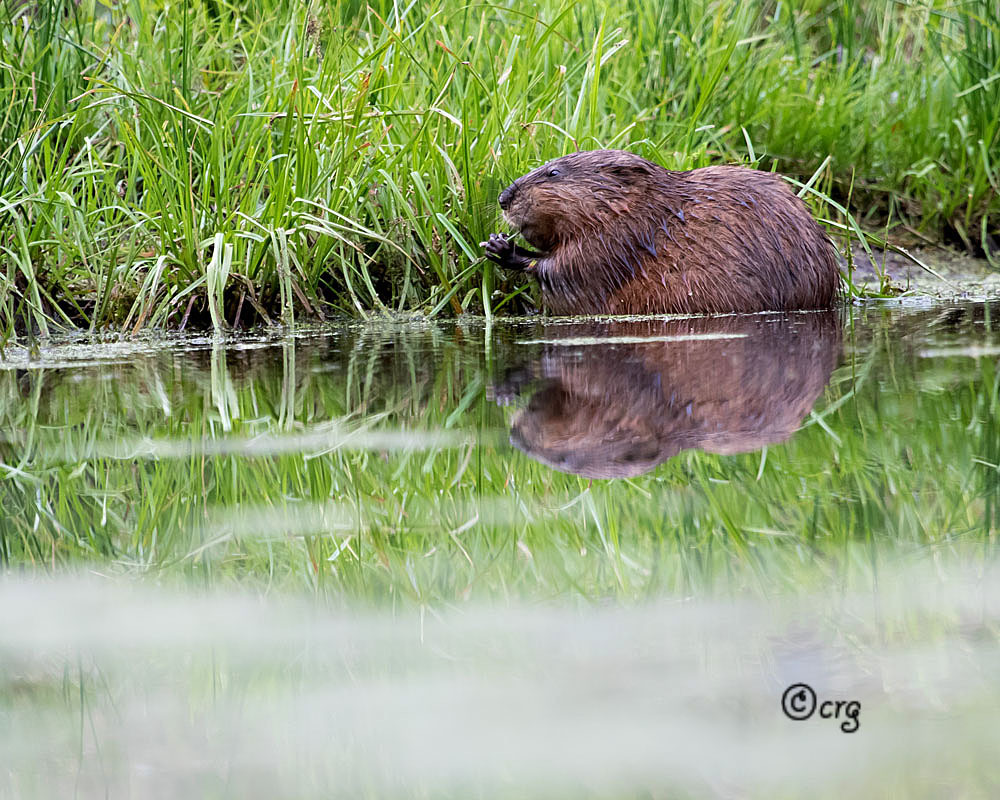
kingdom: Animalia
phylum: Chordata
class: Mammalia
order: Rodentia
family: Cricetidae
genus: Ondatra
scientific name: Ondatra zibethicus
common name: Muskrat
